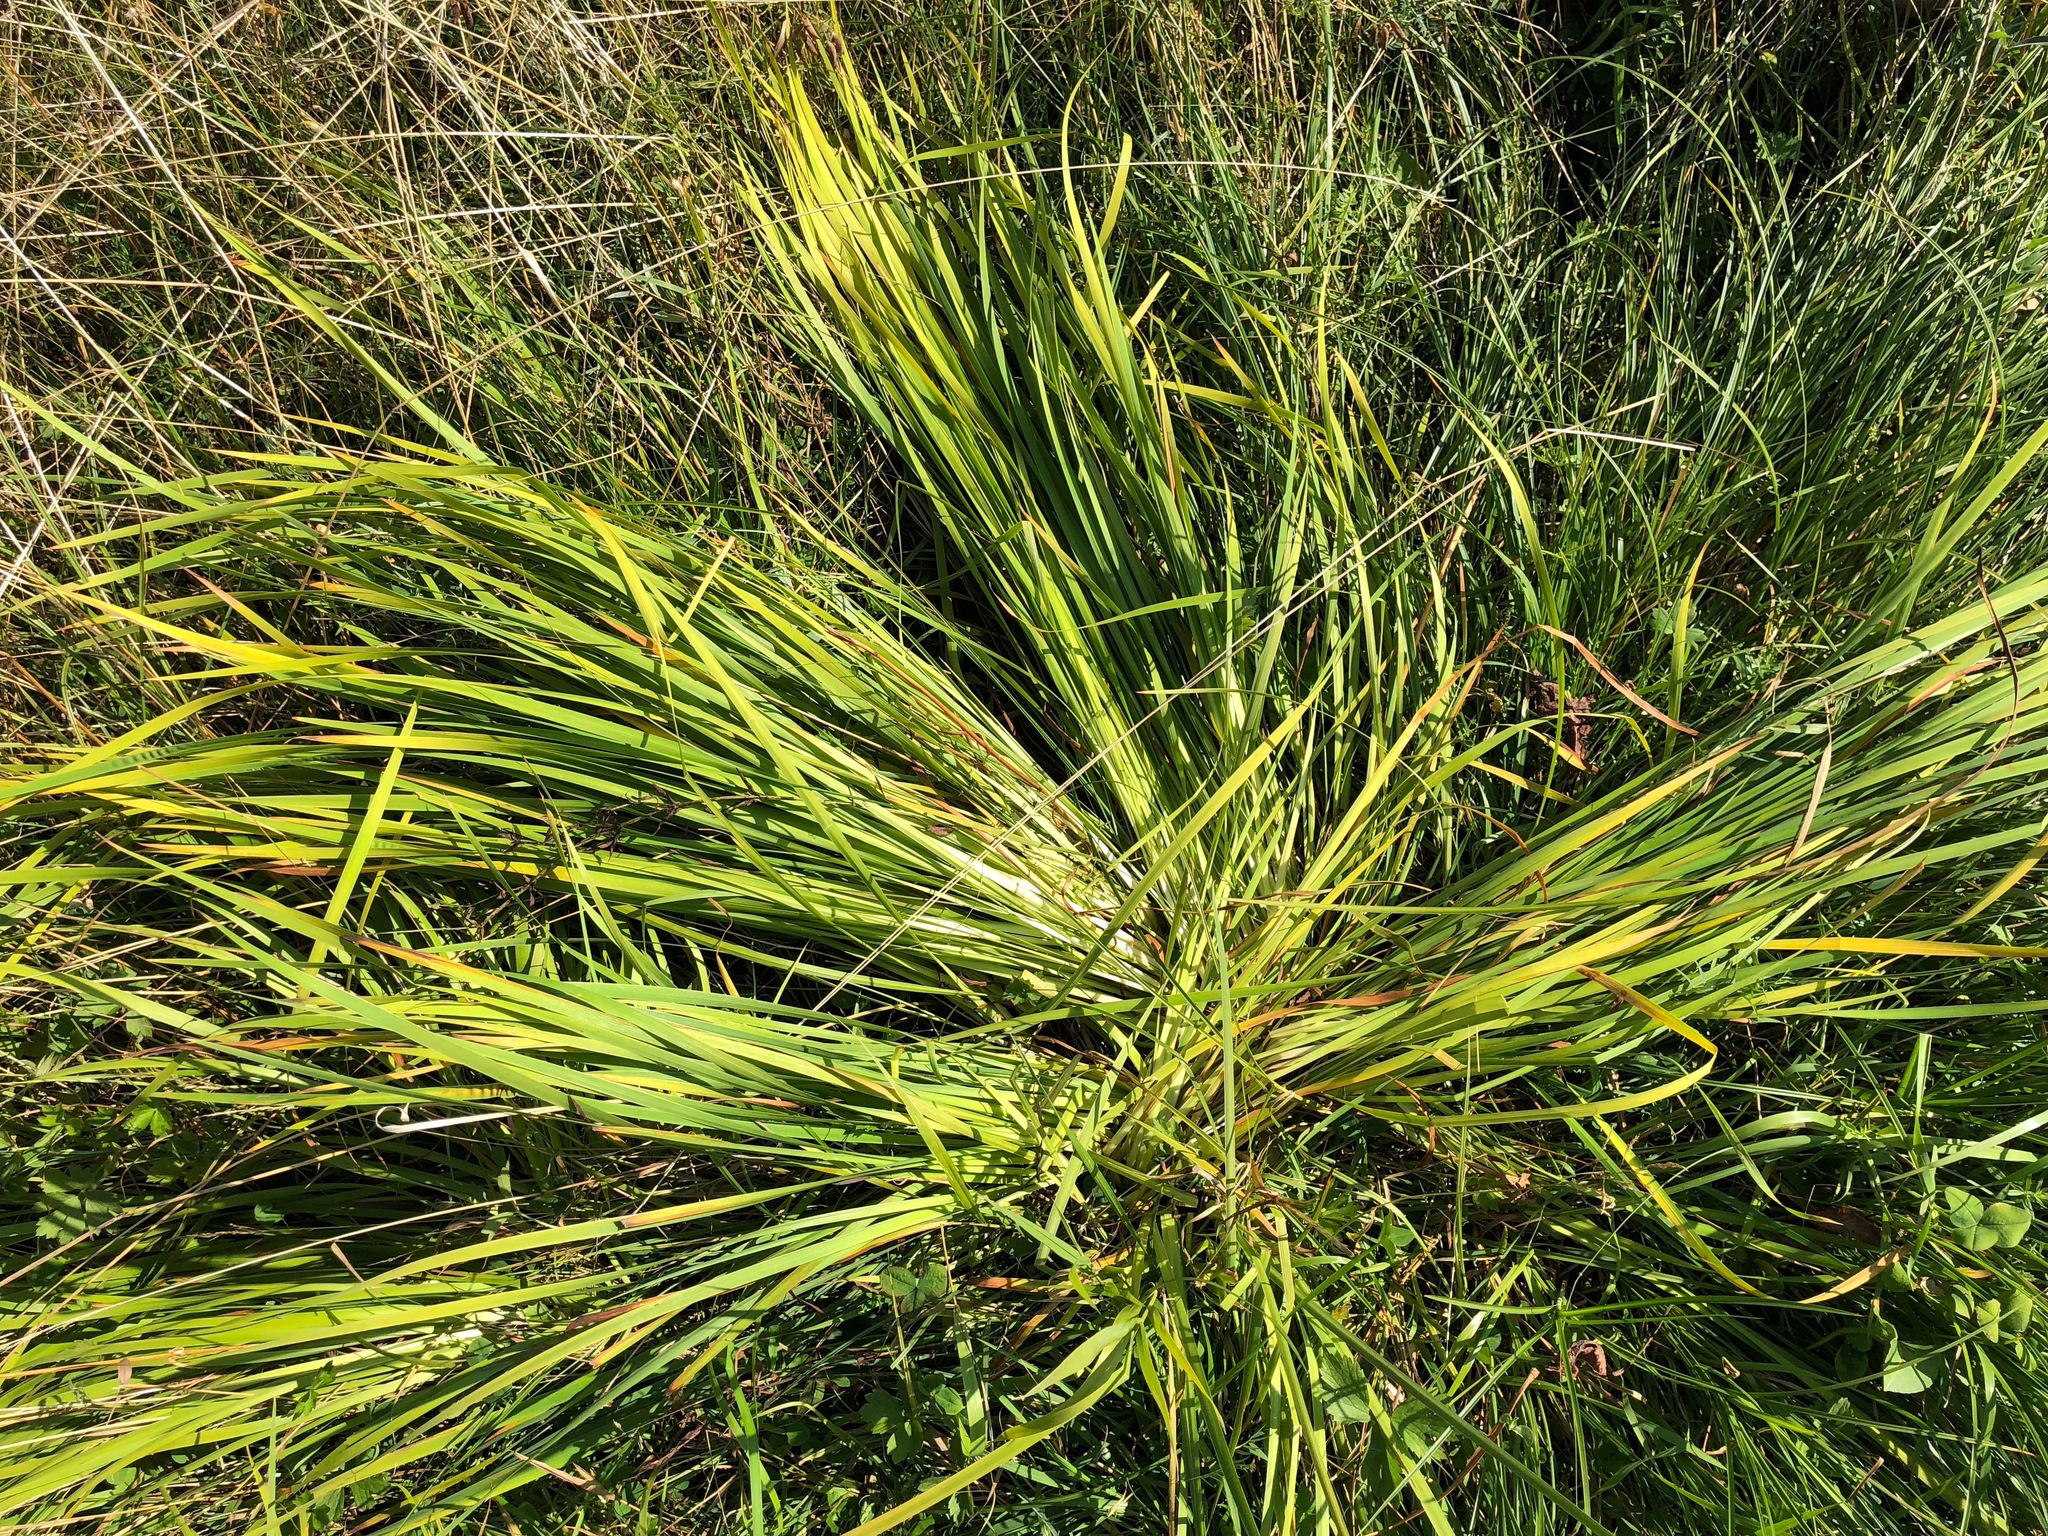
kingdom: Plantae
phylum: Tracheophyta
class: Liliopsida
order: Asparagales
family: Iridaceae
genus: Iris
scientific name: Iris sibirica
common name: Siberian iris
